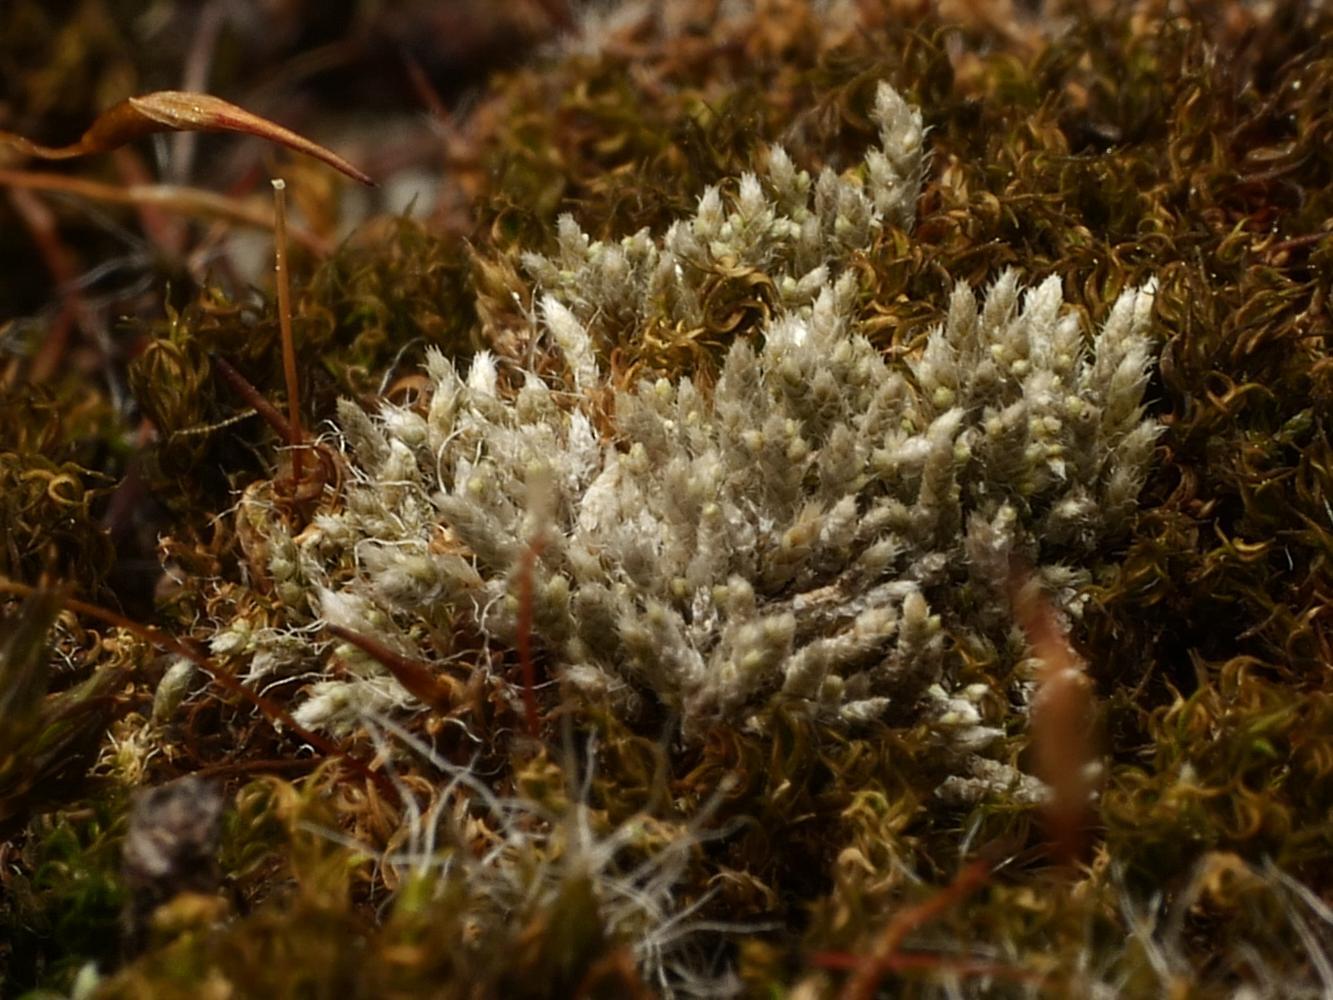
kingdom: Plantae
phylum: Bryophyta
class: Bryopsida
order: Bryales
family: Bryaceae
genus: Bryum
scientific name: Bryum argenteum
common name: Silver-moss
